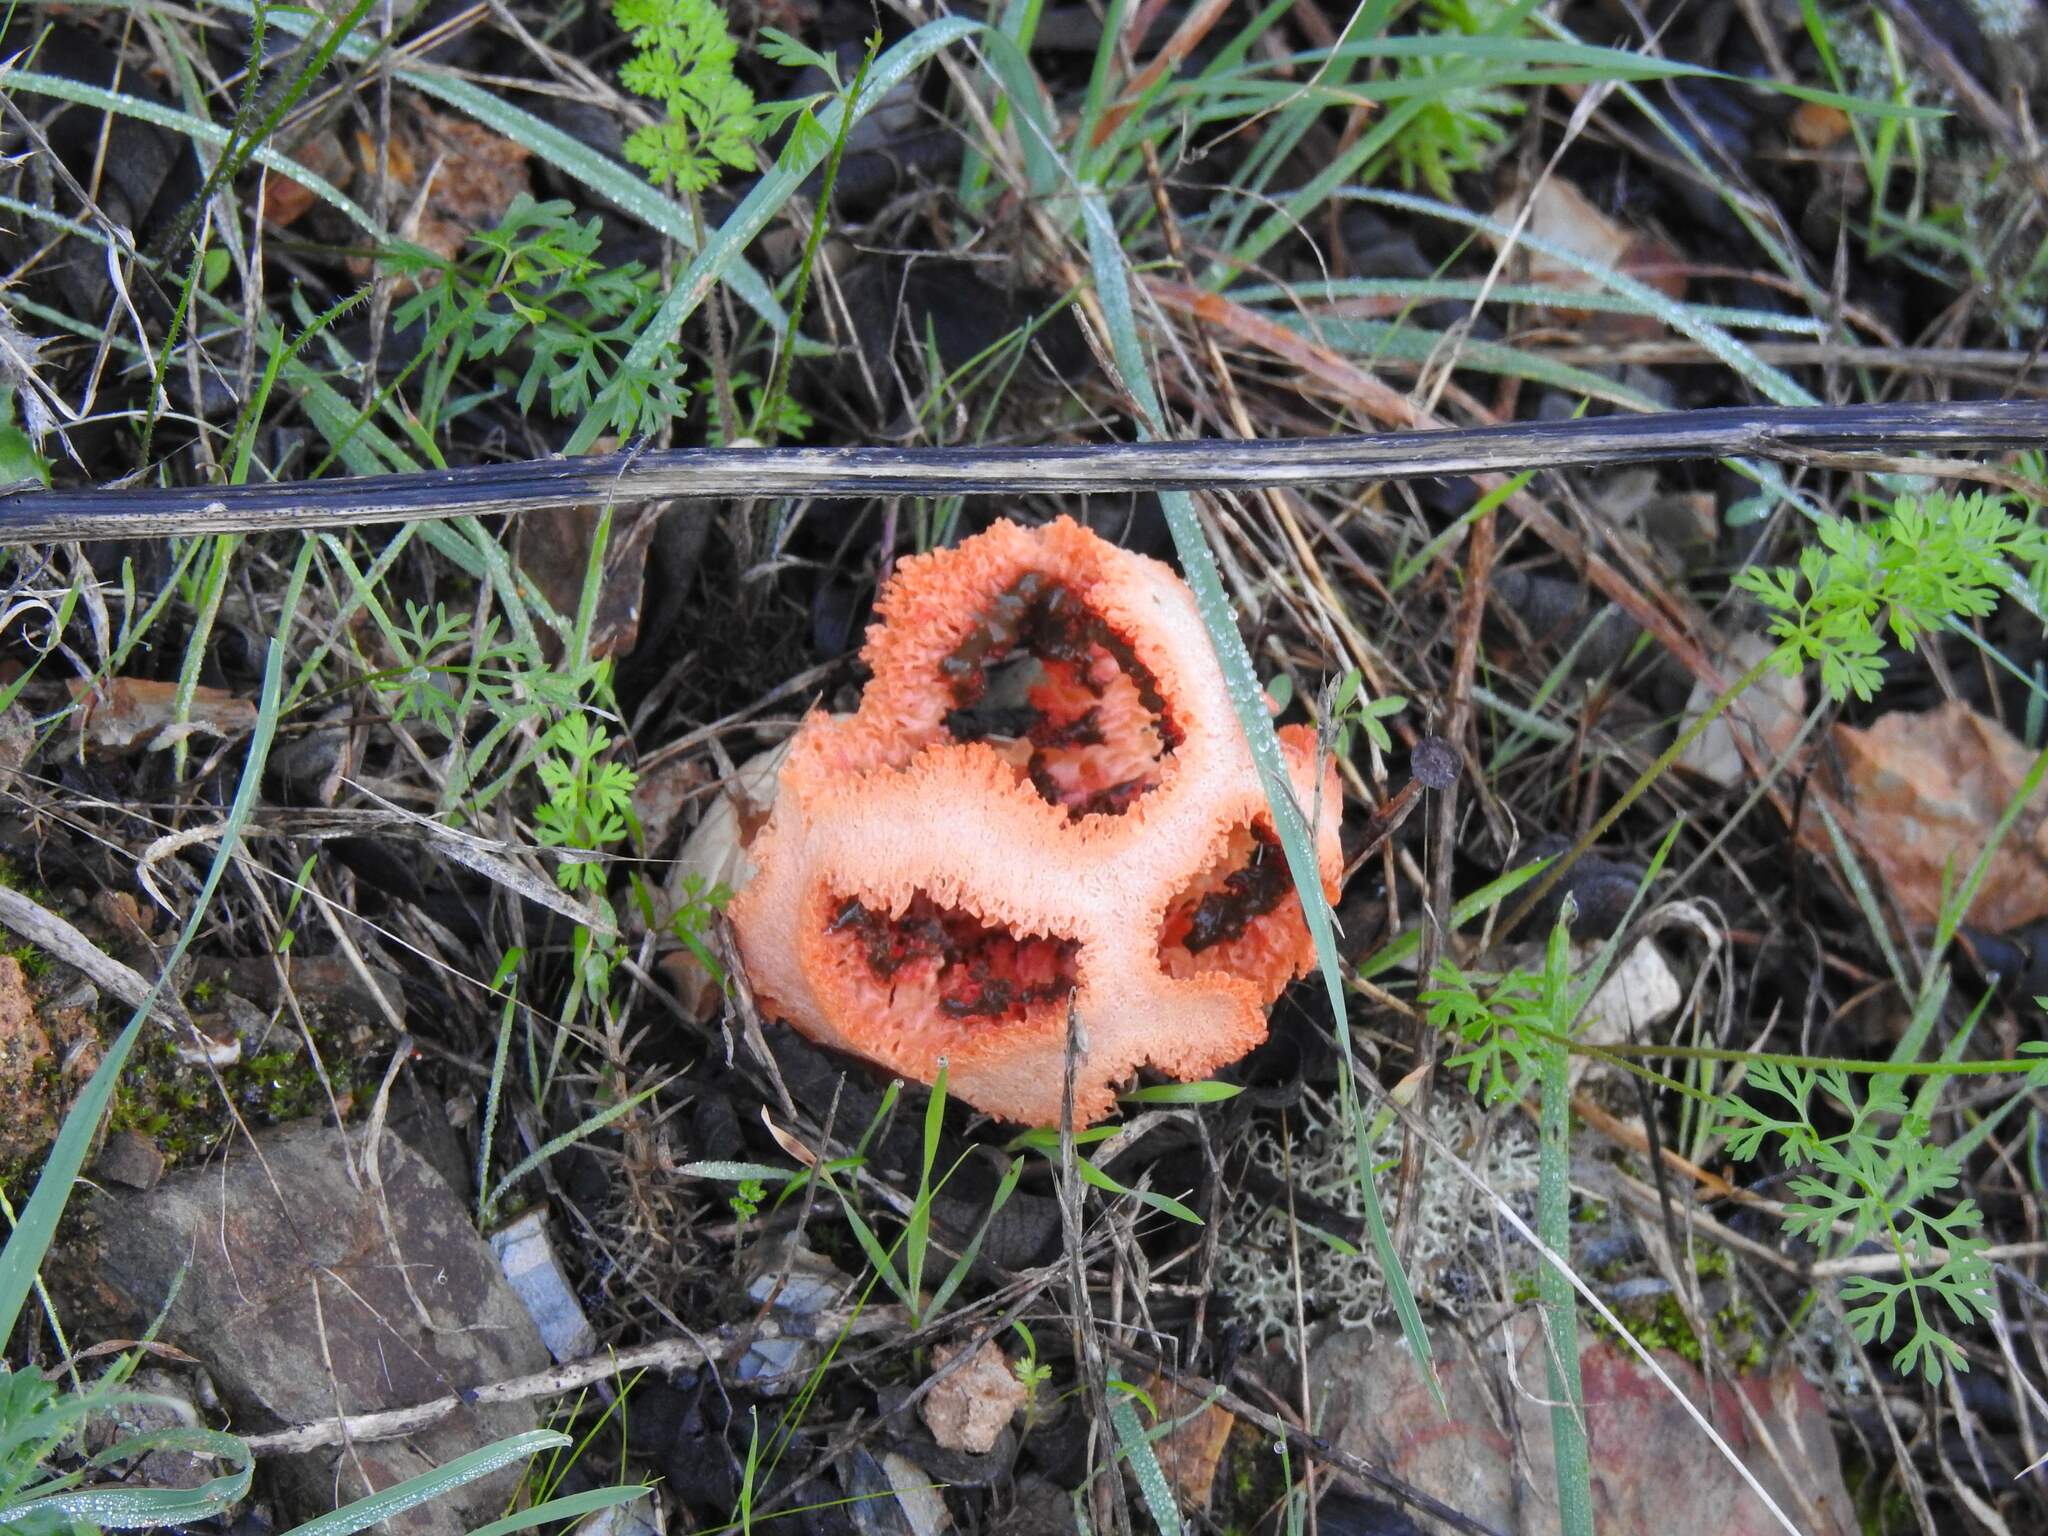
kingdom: Fungi
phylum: Basidiomycota
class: Agaricomycetes
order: Phallales
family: Phallaceae
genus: Clathrus
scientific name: Clathrus ruber
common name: Red cage
